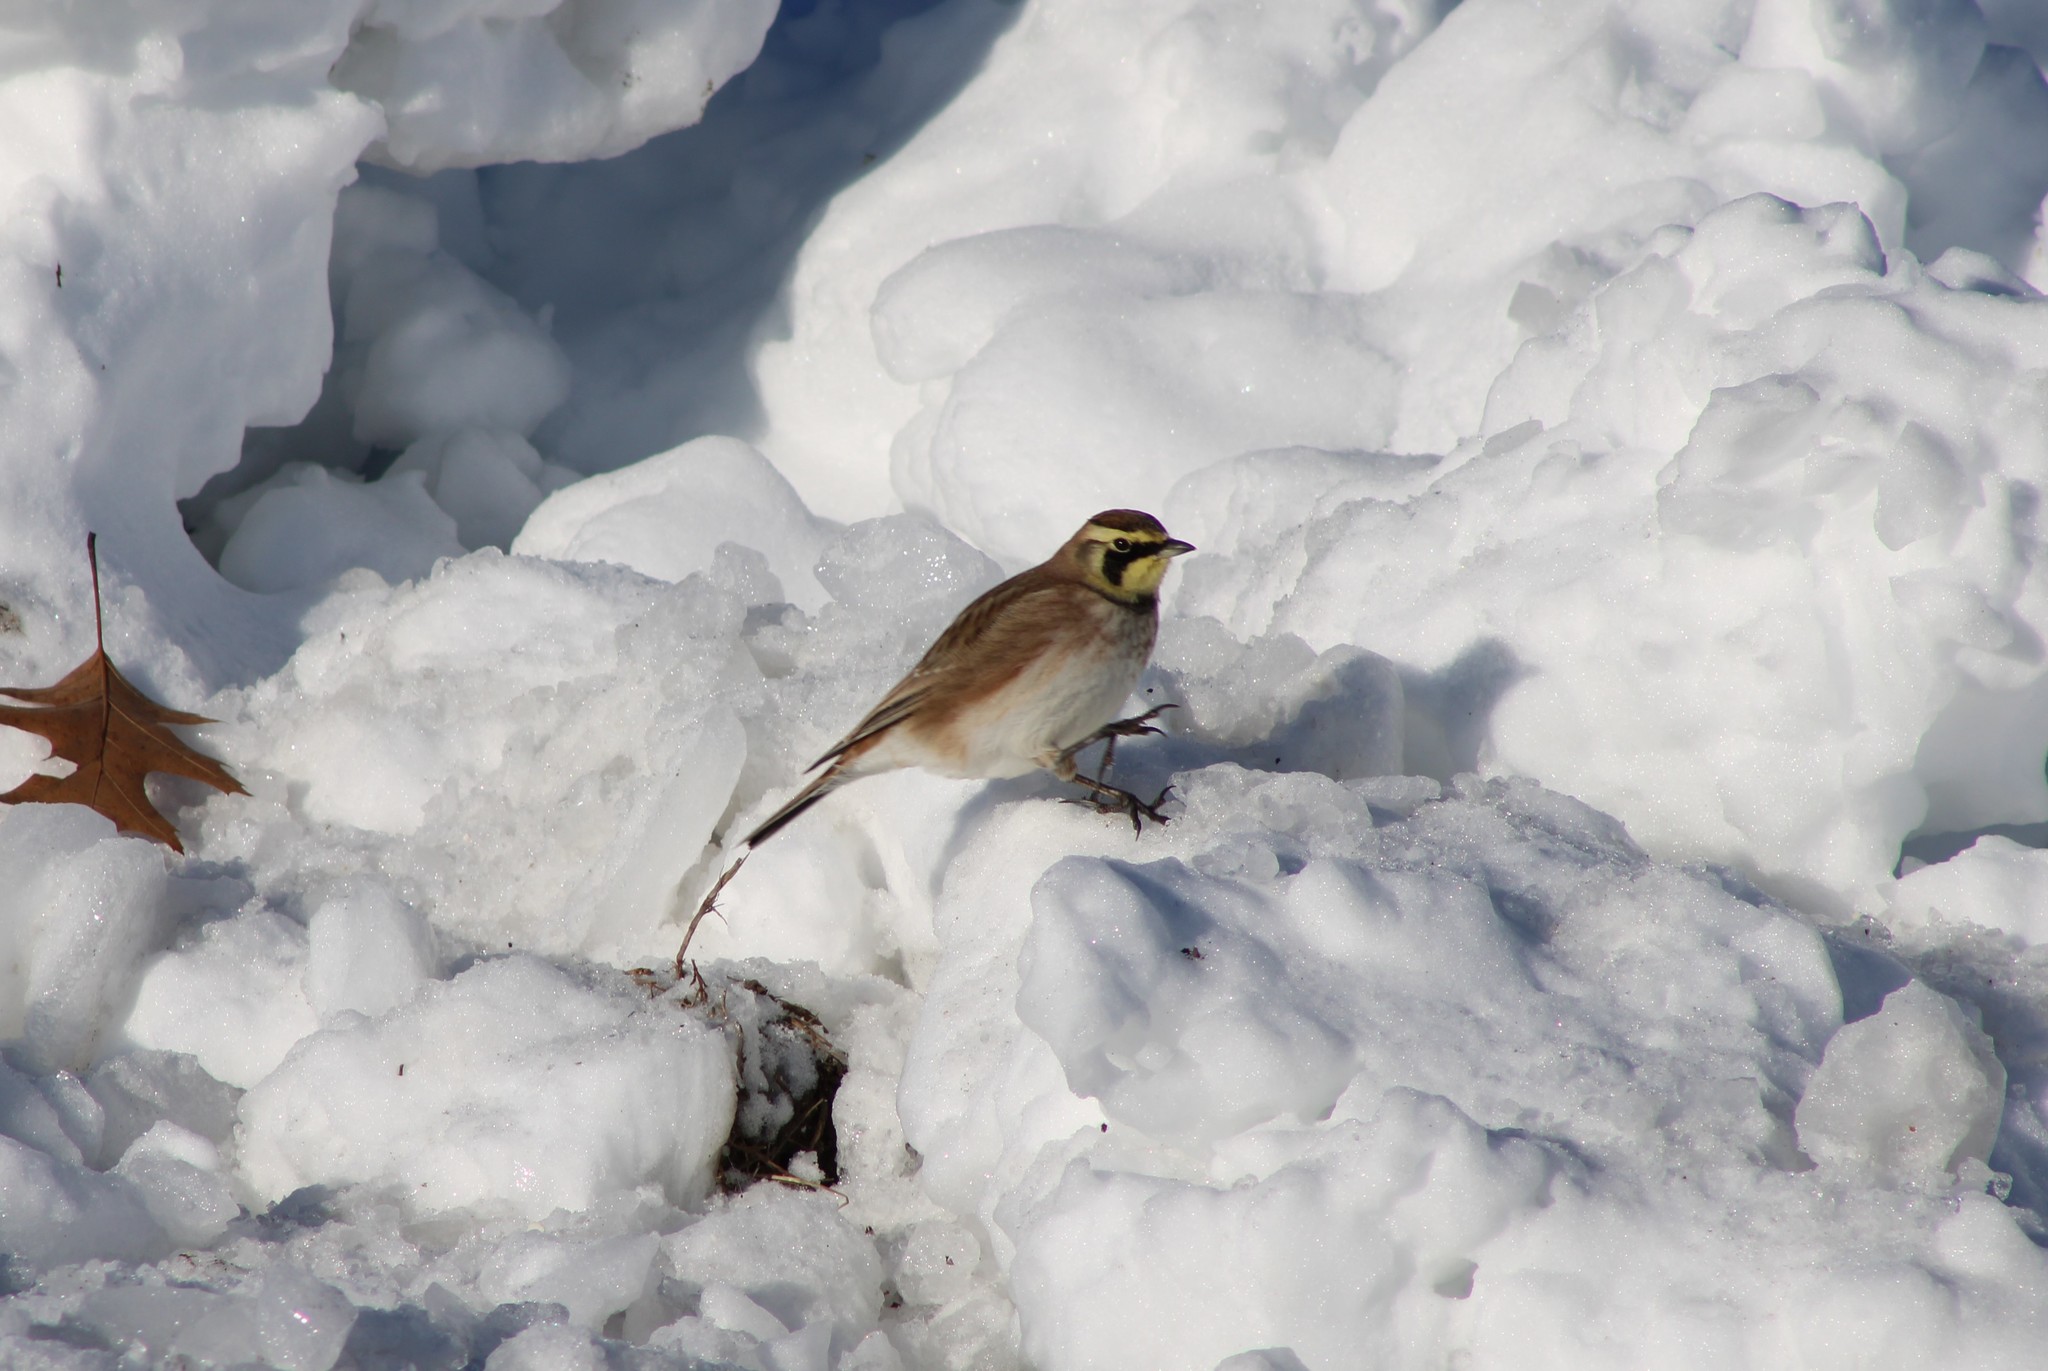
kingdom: Animalia
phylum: Chordata
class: Aves
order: Passeriformes
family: Alaudidae
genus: Eremophila
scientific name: Eremophila alpestris
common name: Horned lark
